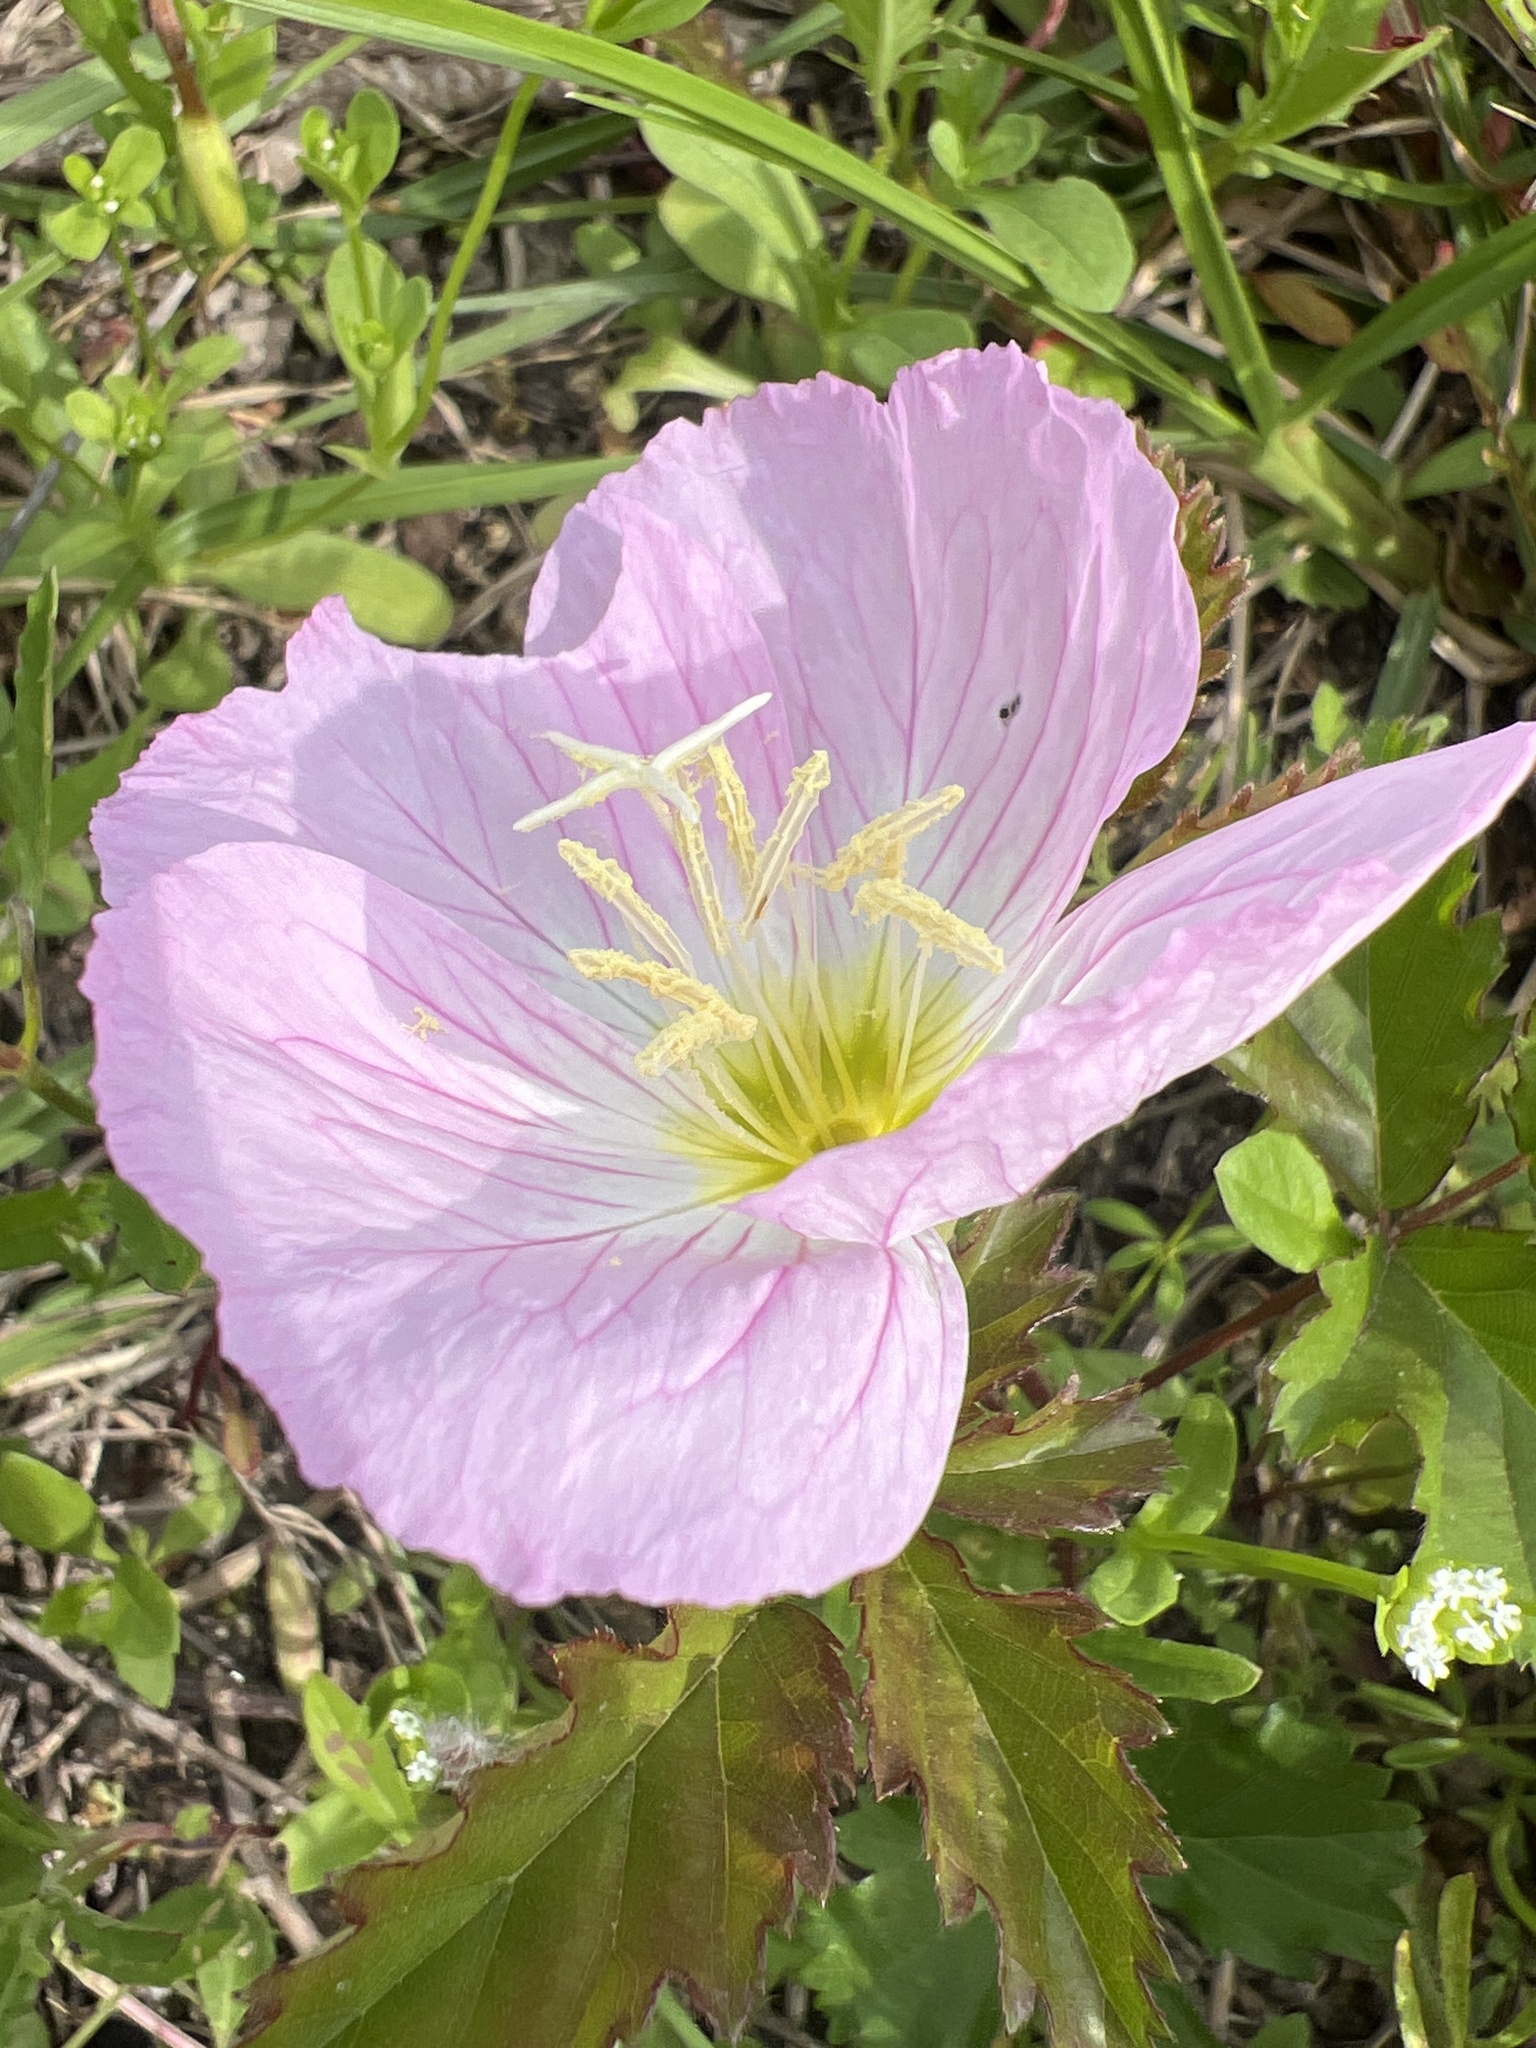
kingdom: Plantae
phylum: Tracheophyta
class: Magnoliopsida
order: Myrtales
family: Onagraceae
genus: Oenothera
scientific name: Oenothera speciosa
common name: White evening-primrose
